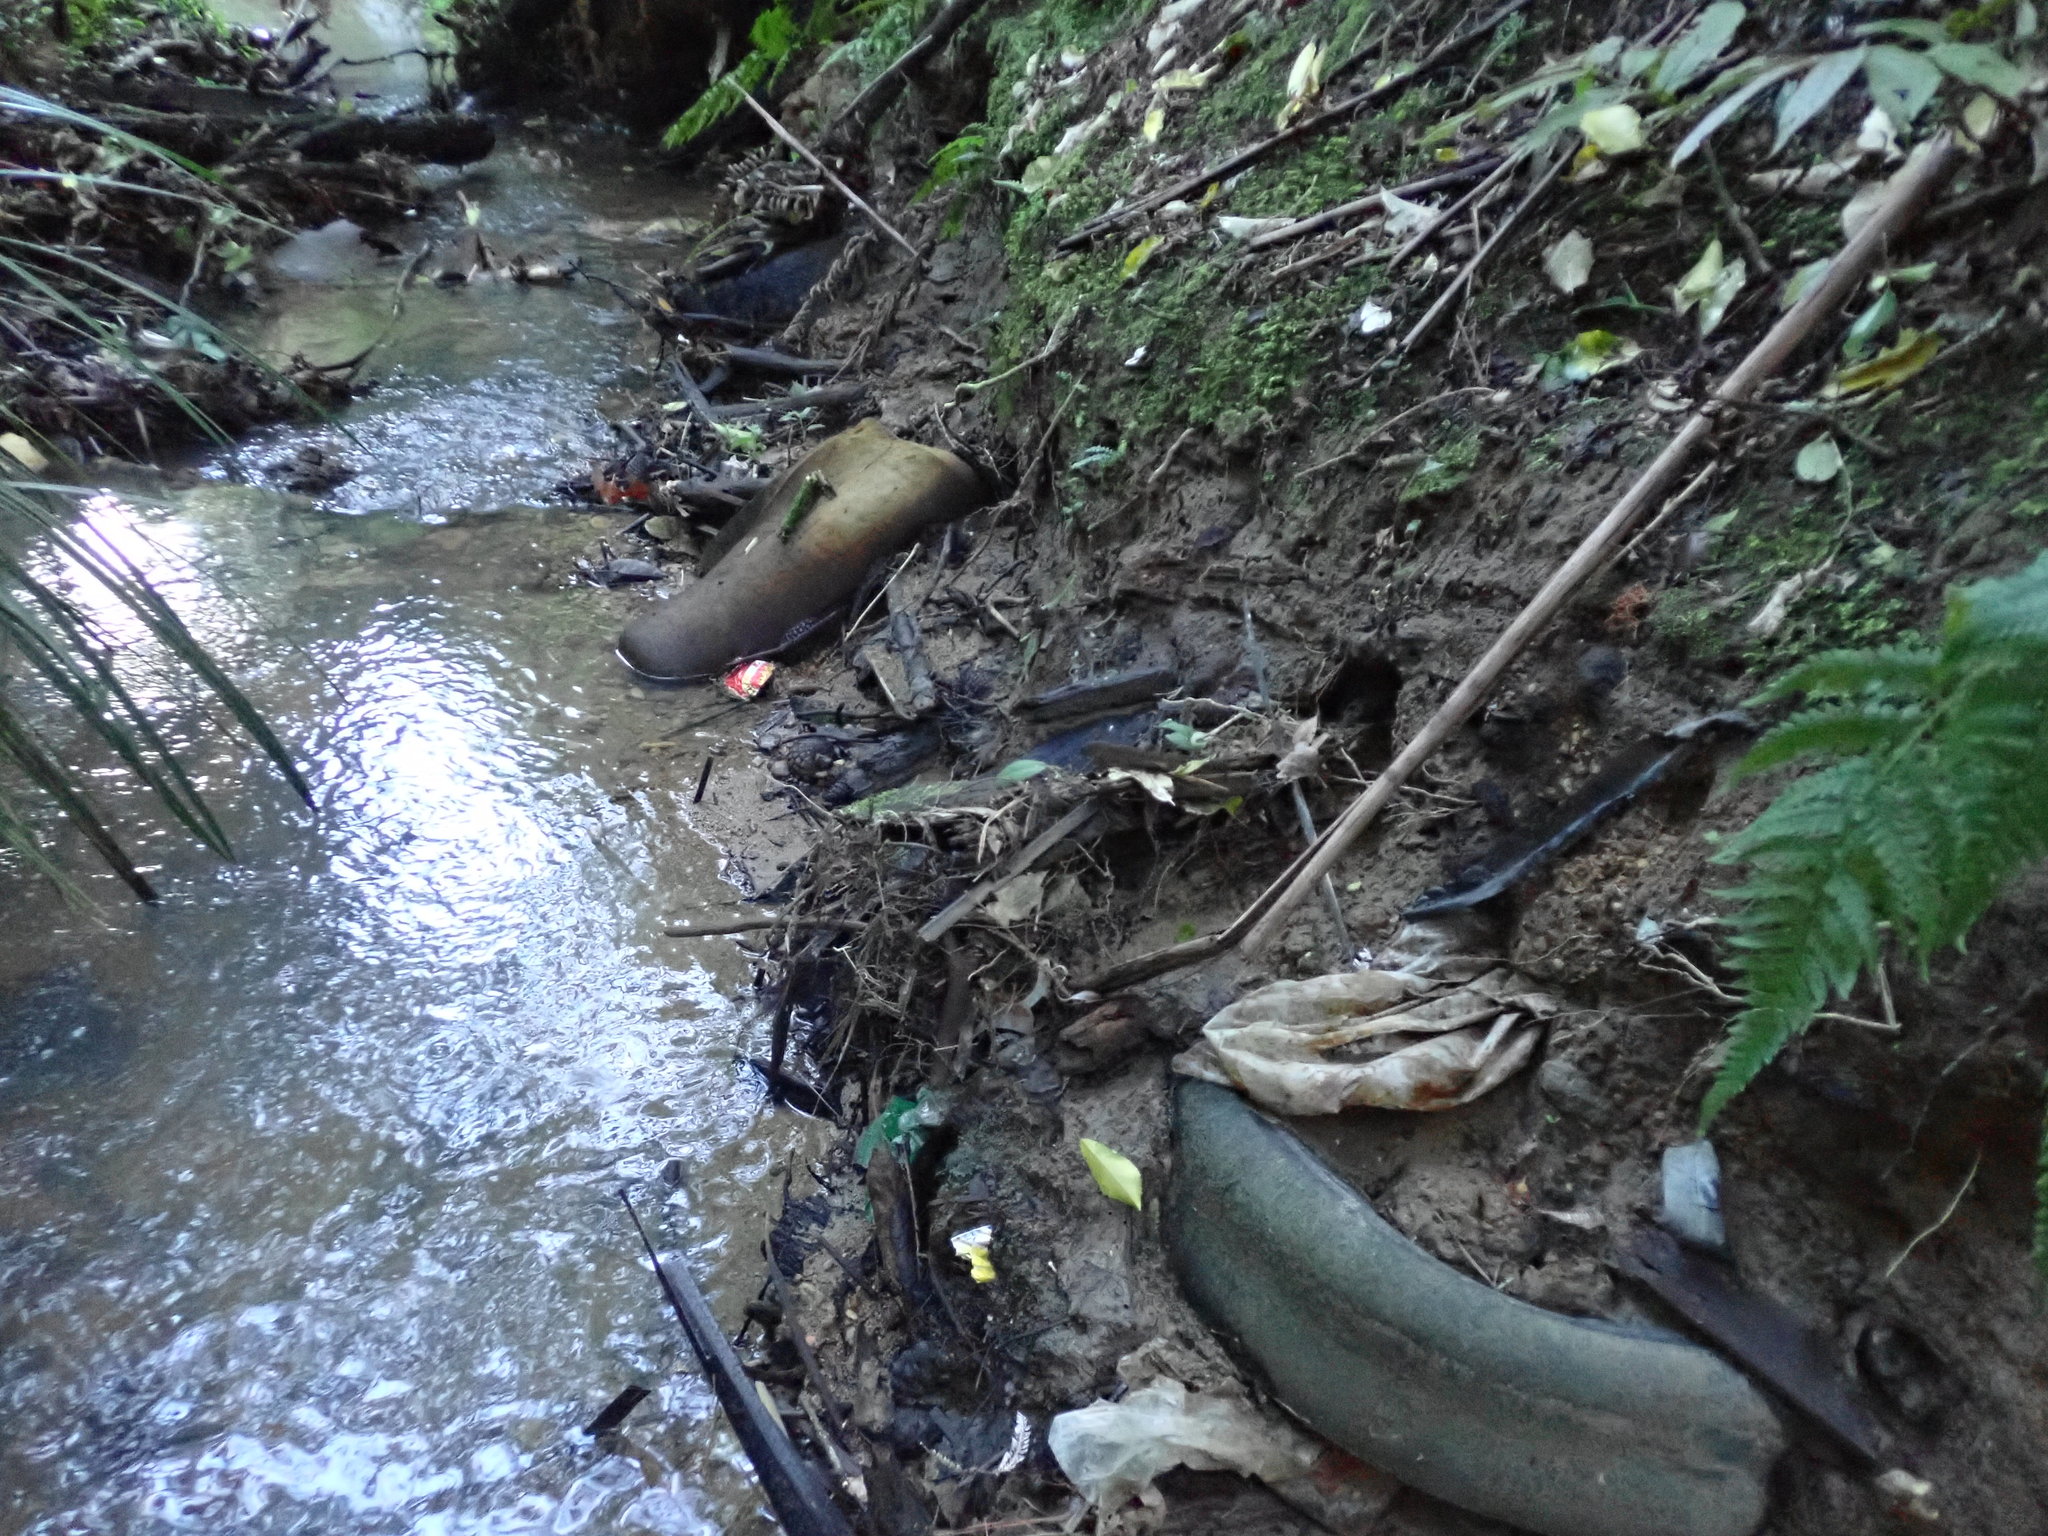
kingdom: Plantae
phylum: Tracheophyta
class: Magnoliopsida
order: Lamiales
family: Oleaceae
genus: Ligustrum
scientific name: Ligustrum lucidum
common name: Glossy privet
